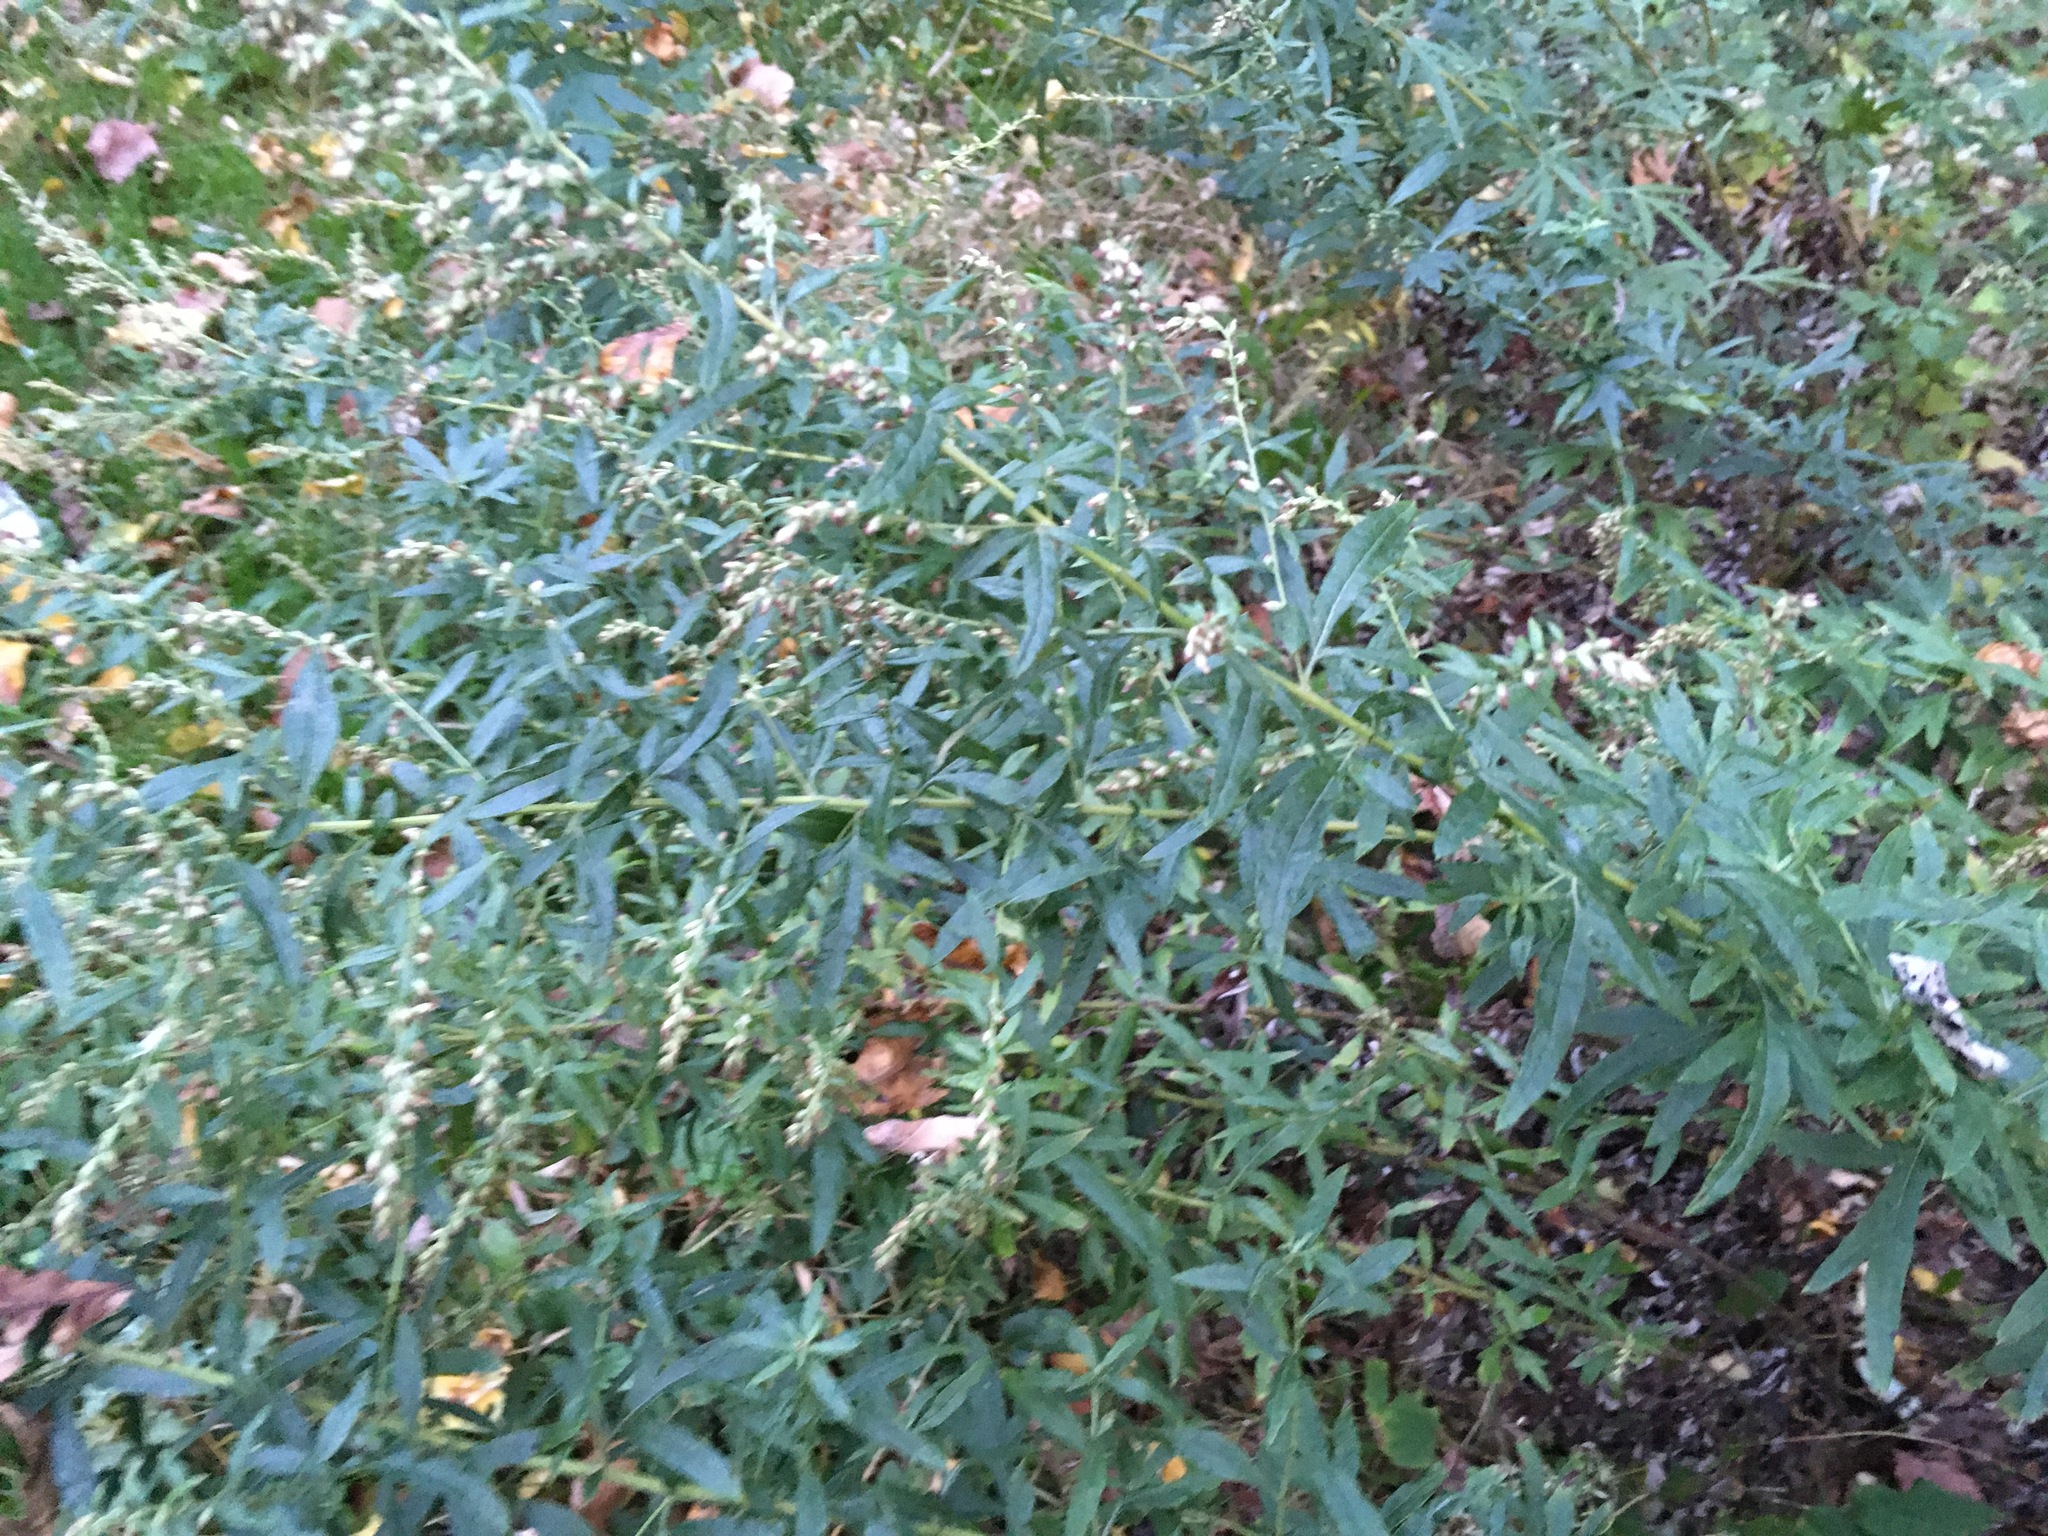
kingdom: Plantae
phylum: Tracheophyta
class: Magnoliopsida
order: Asterales
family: Asteraceae
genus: Artemisia
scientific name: Artemisia vulgaris
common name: Mugwort
